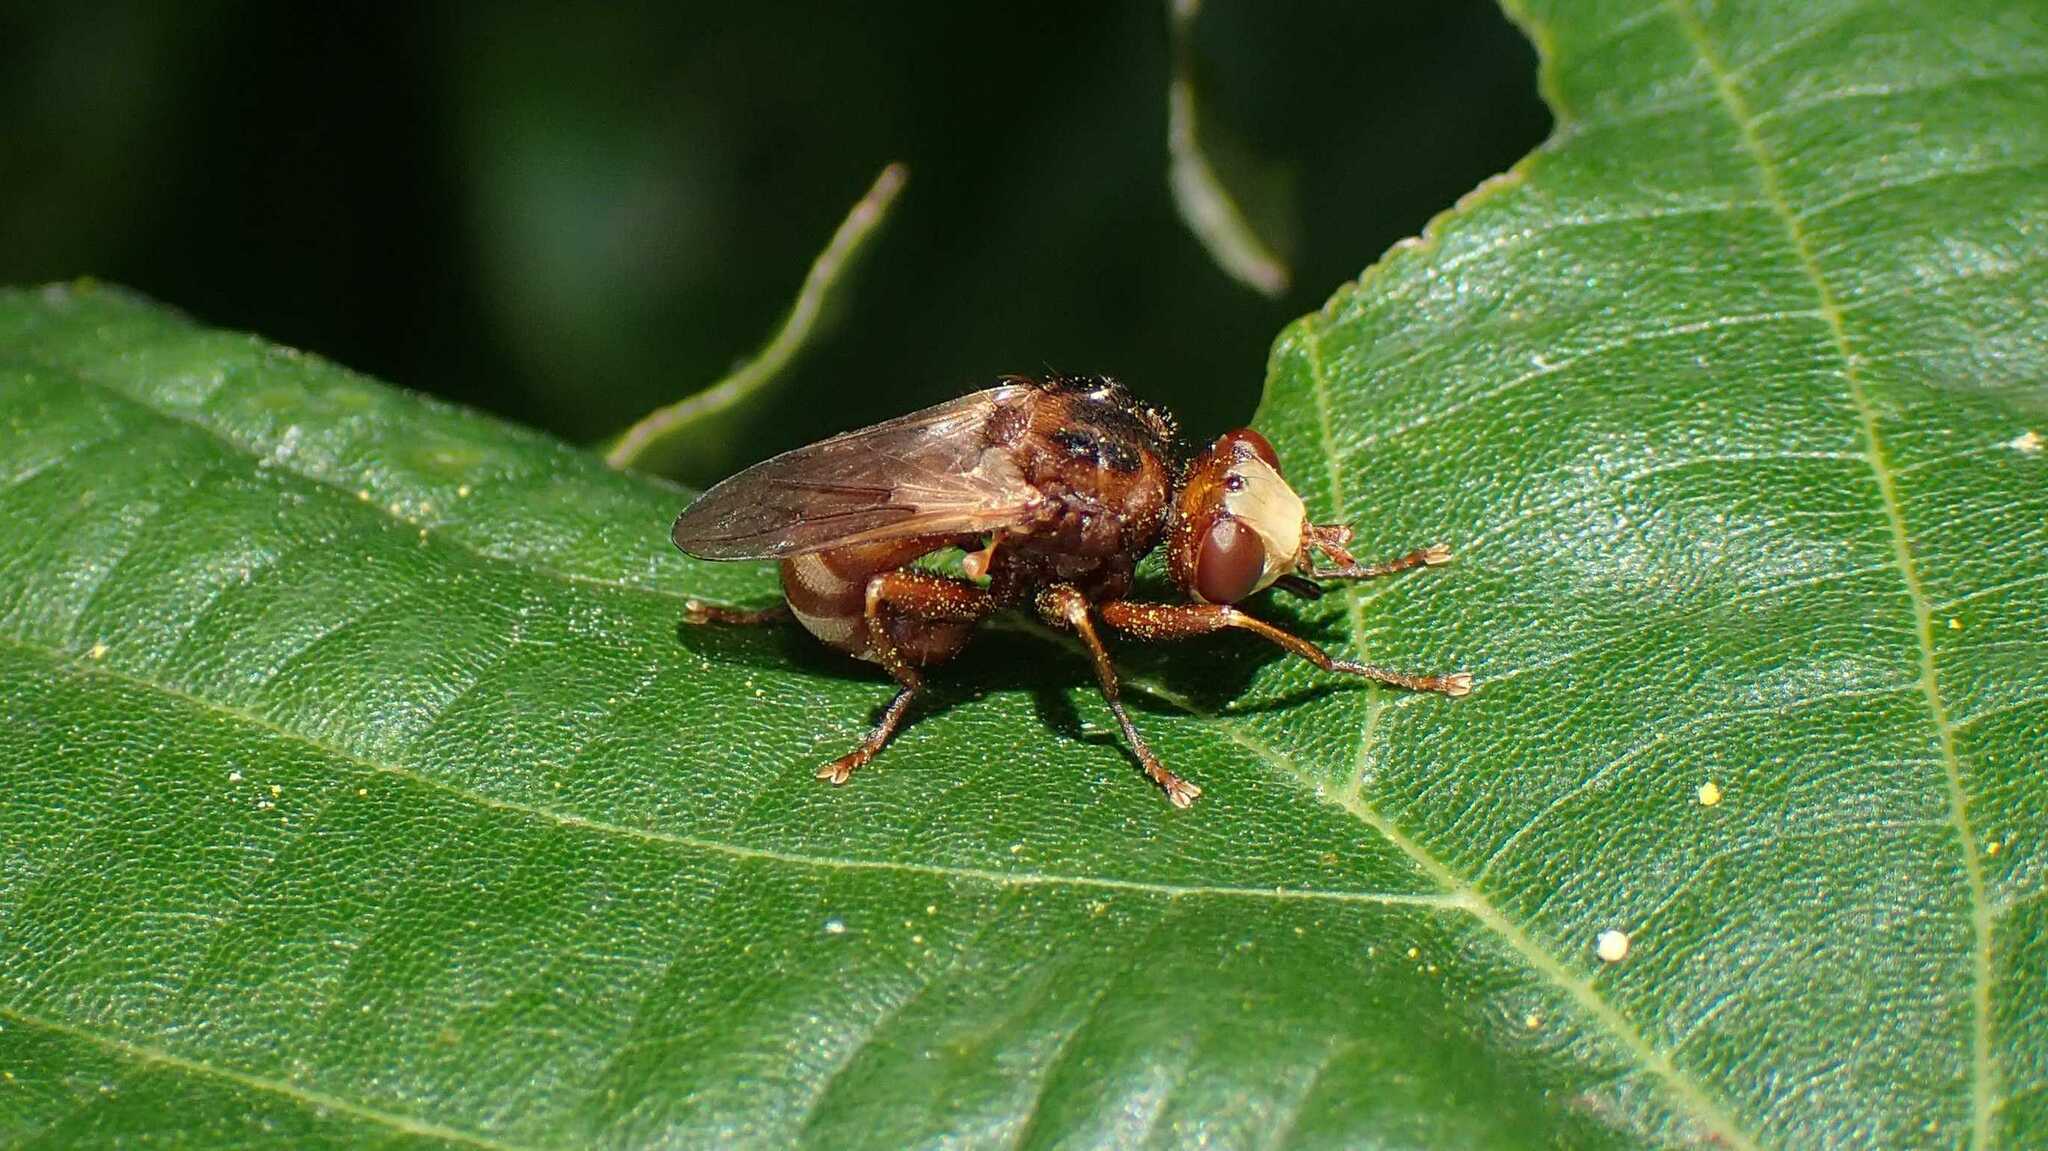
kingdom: Animalia
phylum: Arthropoda
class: Insecta
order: Diptera
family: Conopidae
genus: Sicus
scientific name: Sicus ferrugineus
